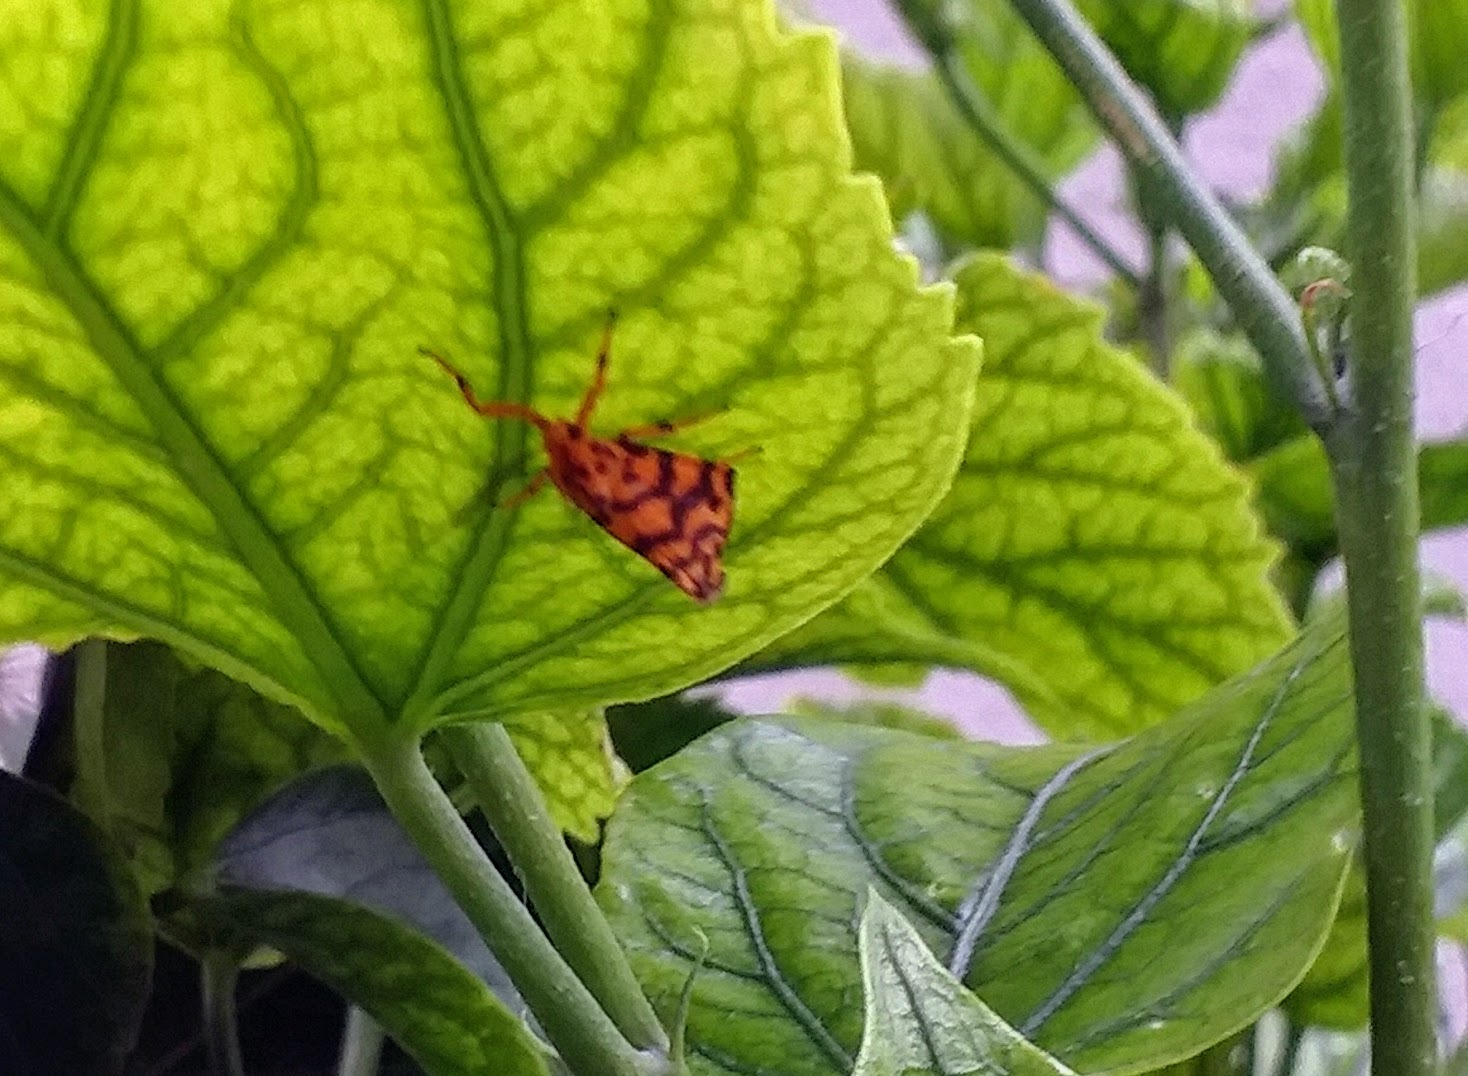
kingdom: Animalia
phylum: Arthropoda
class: Insecta
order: Lepidoptera
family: Erebidae
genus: Nepita
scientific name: Nepita conferta
